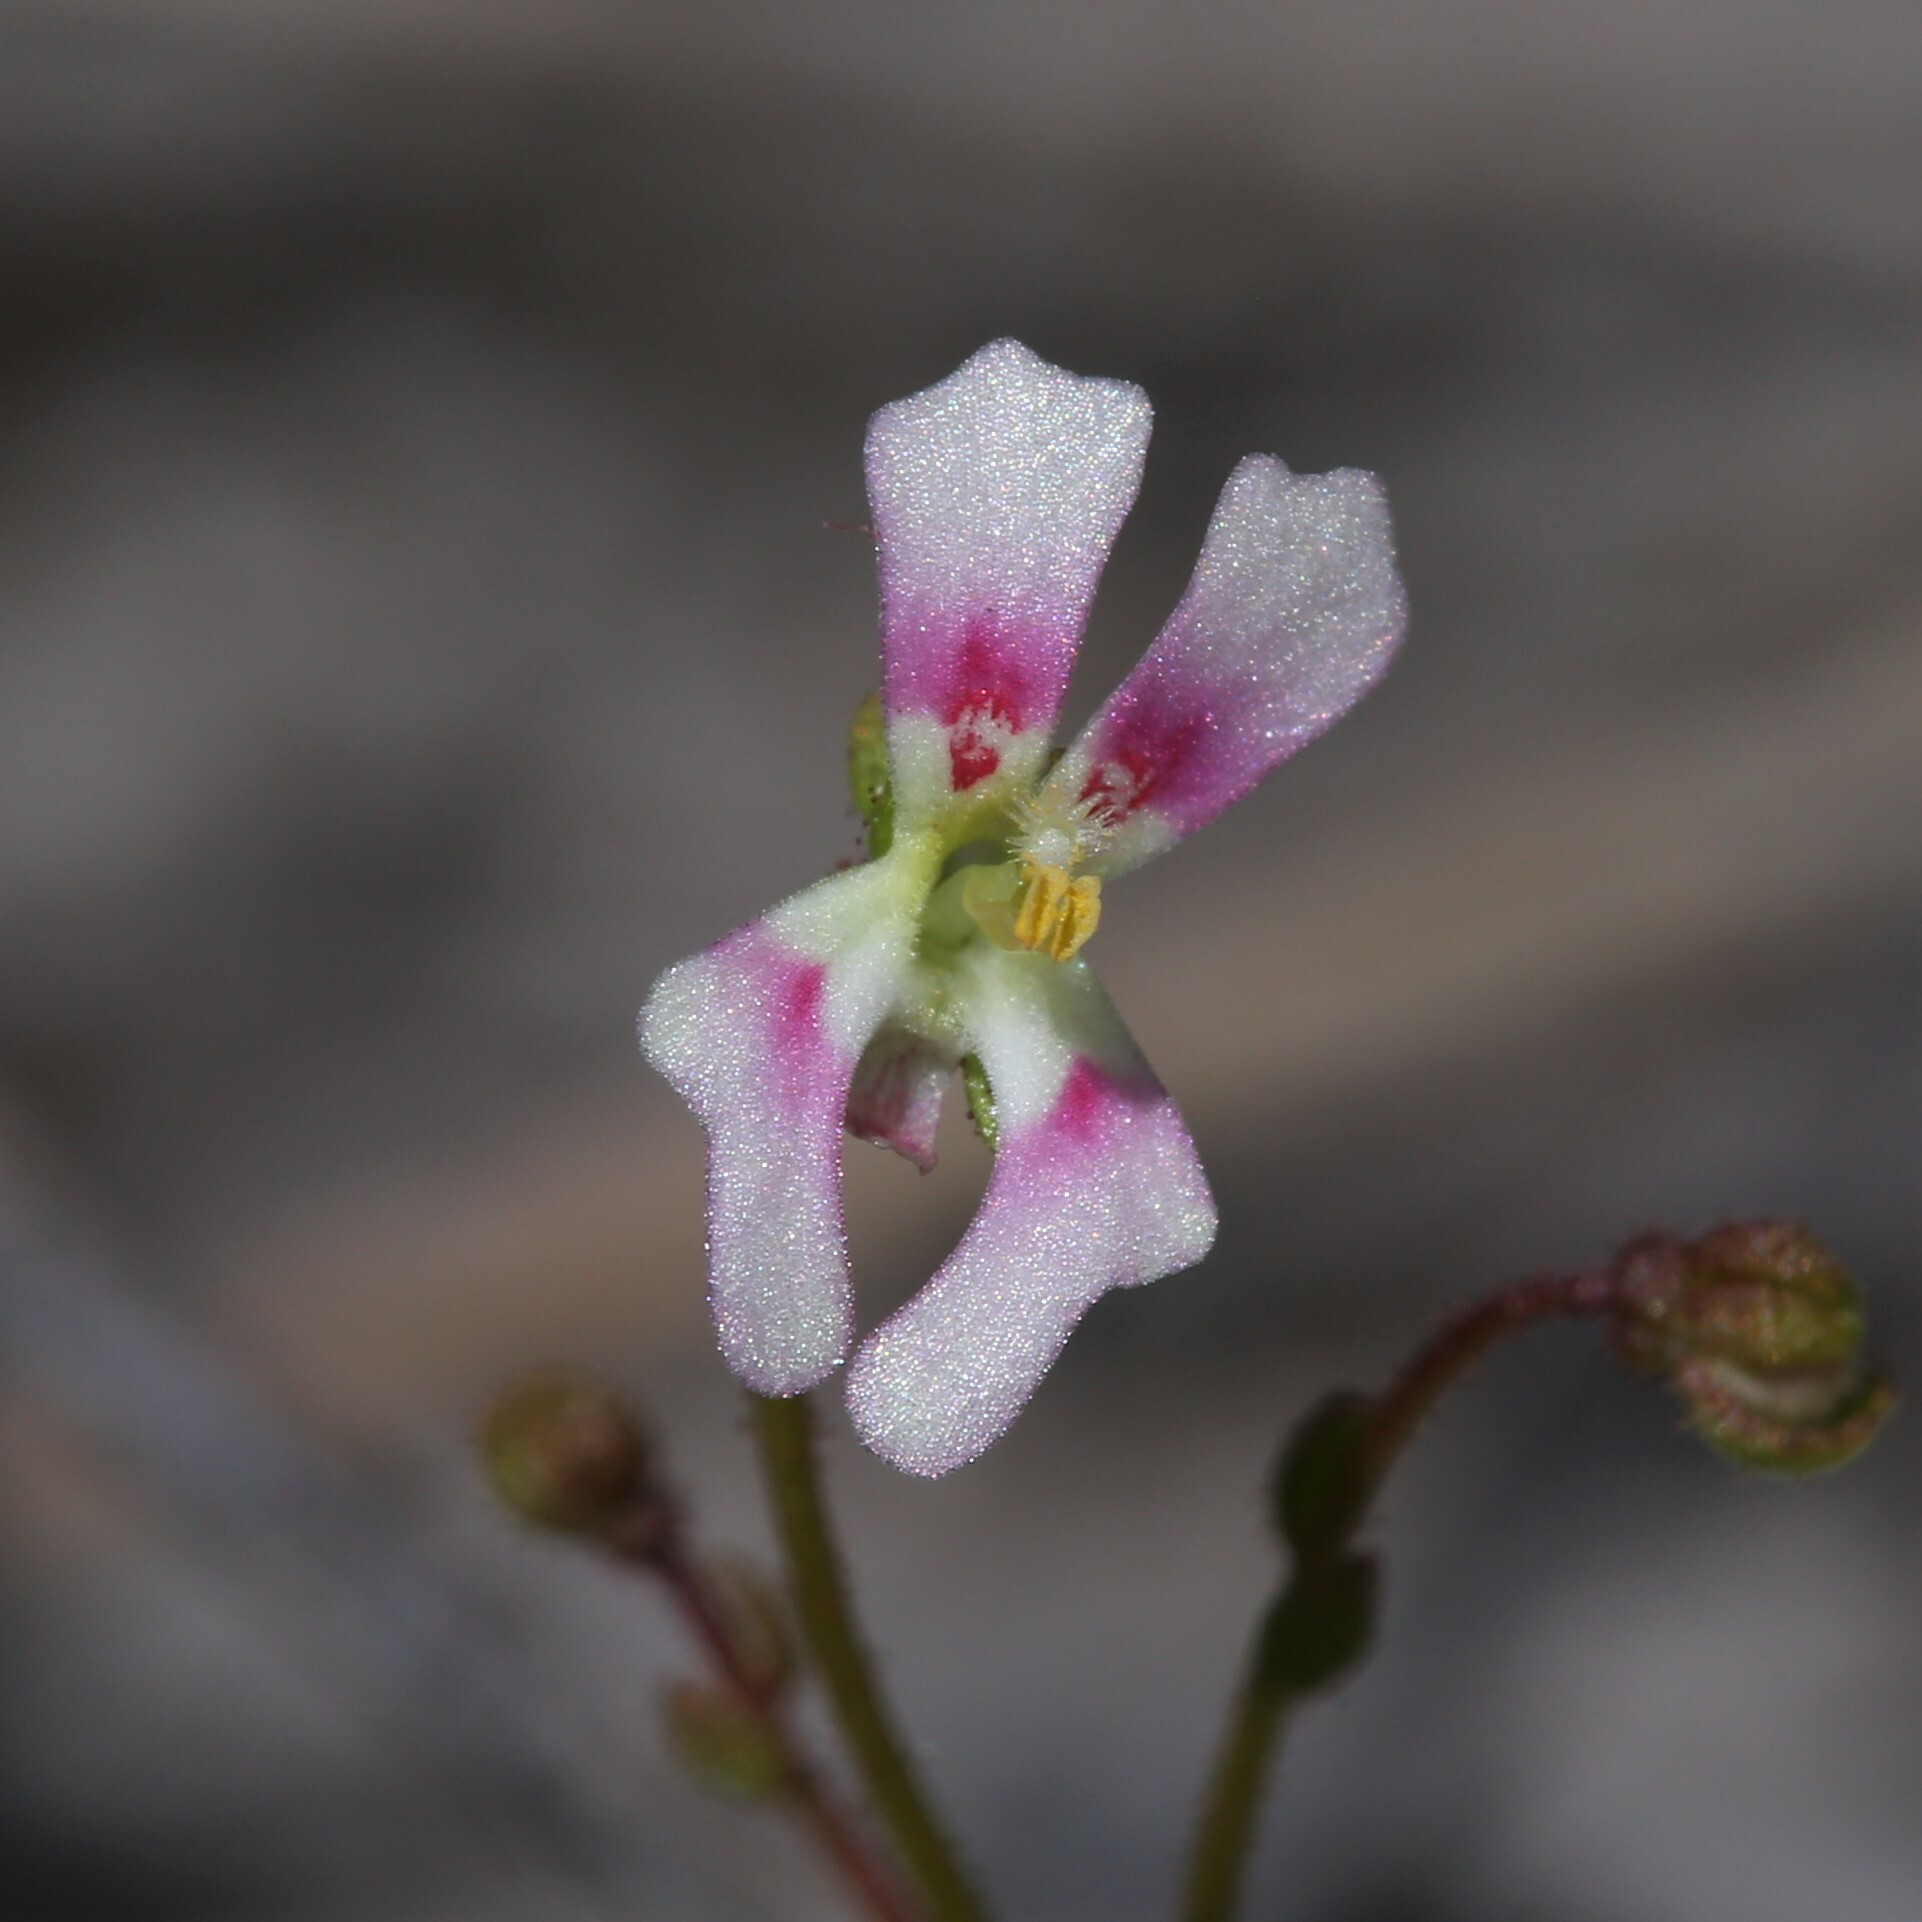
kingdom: Plantae
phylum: Tracheophyta
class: Magnoliopsida
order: Asterales
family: Stylidiaceae
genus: Stylidium
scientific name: Stylidium calcaratum
